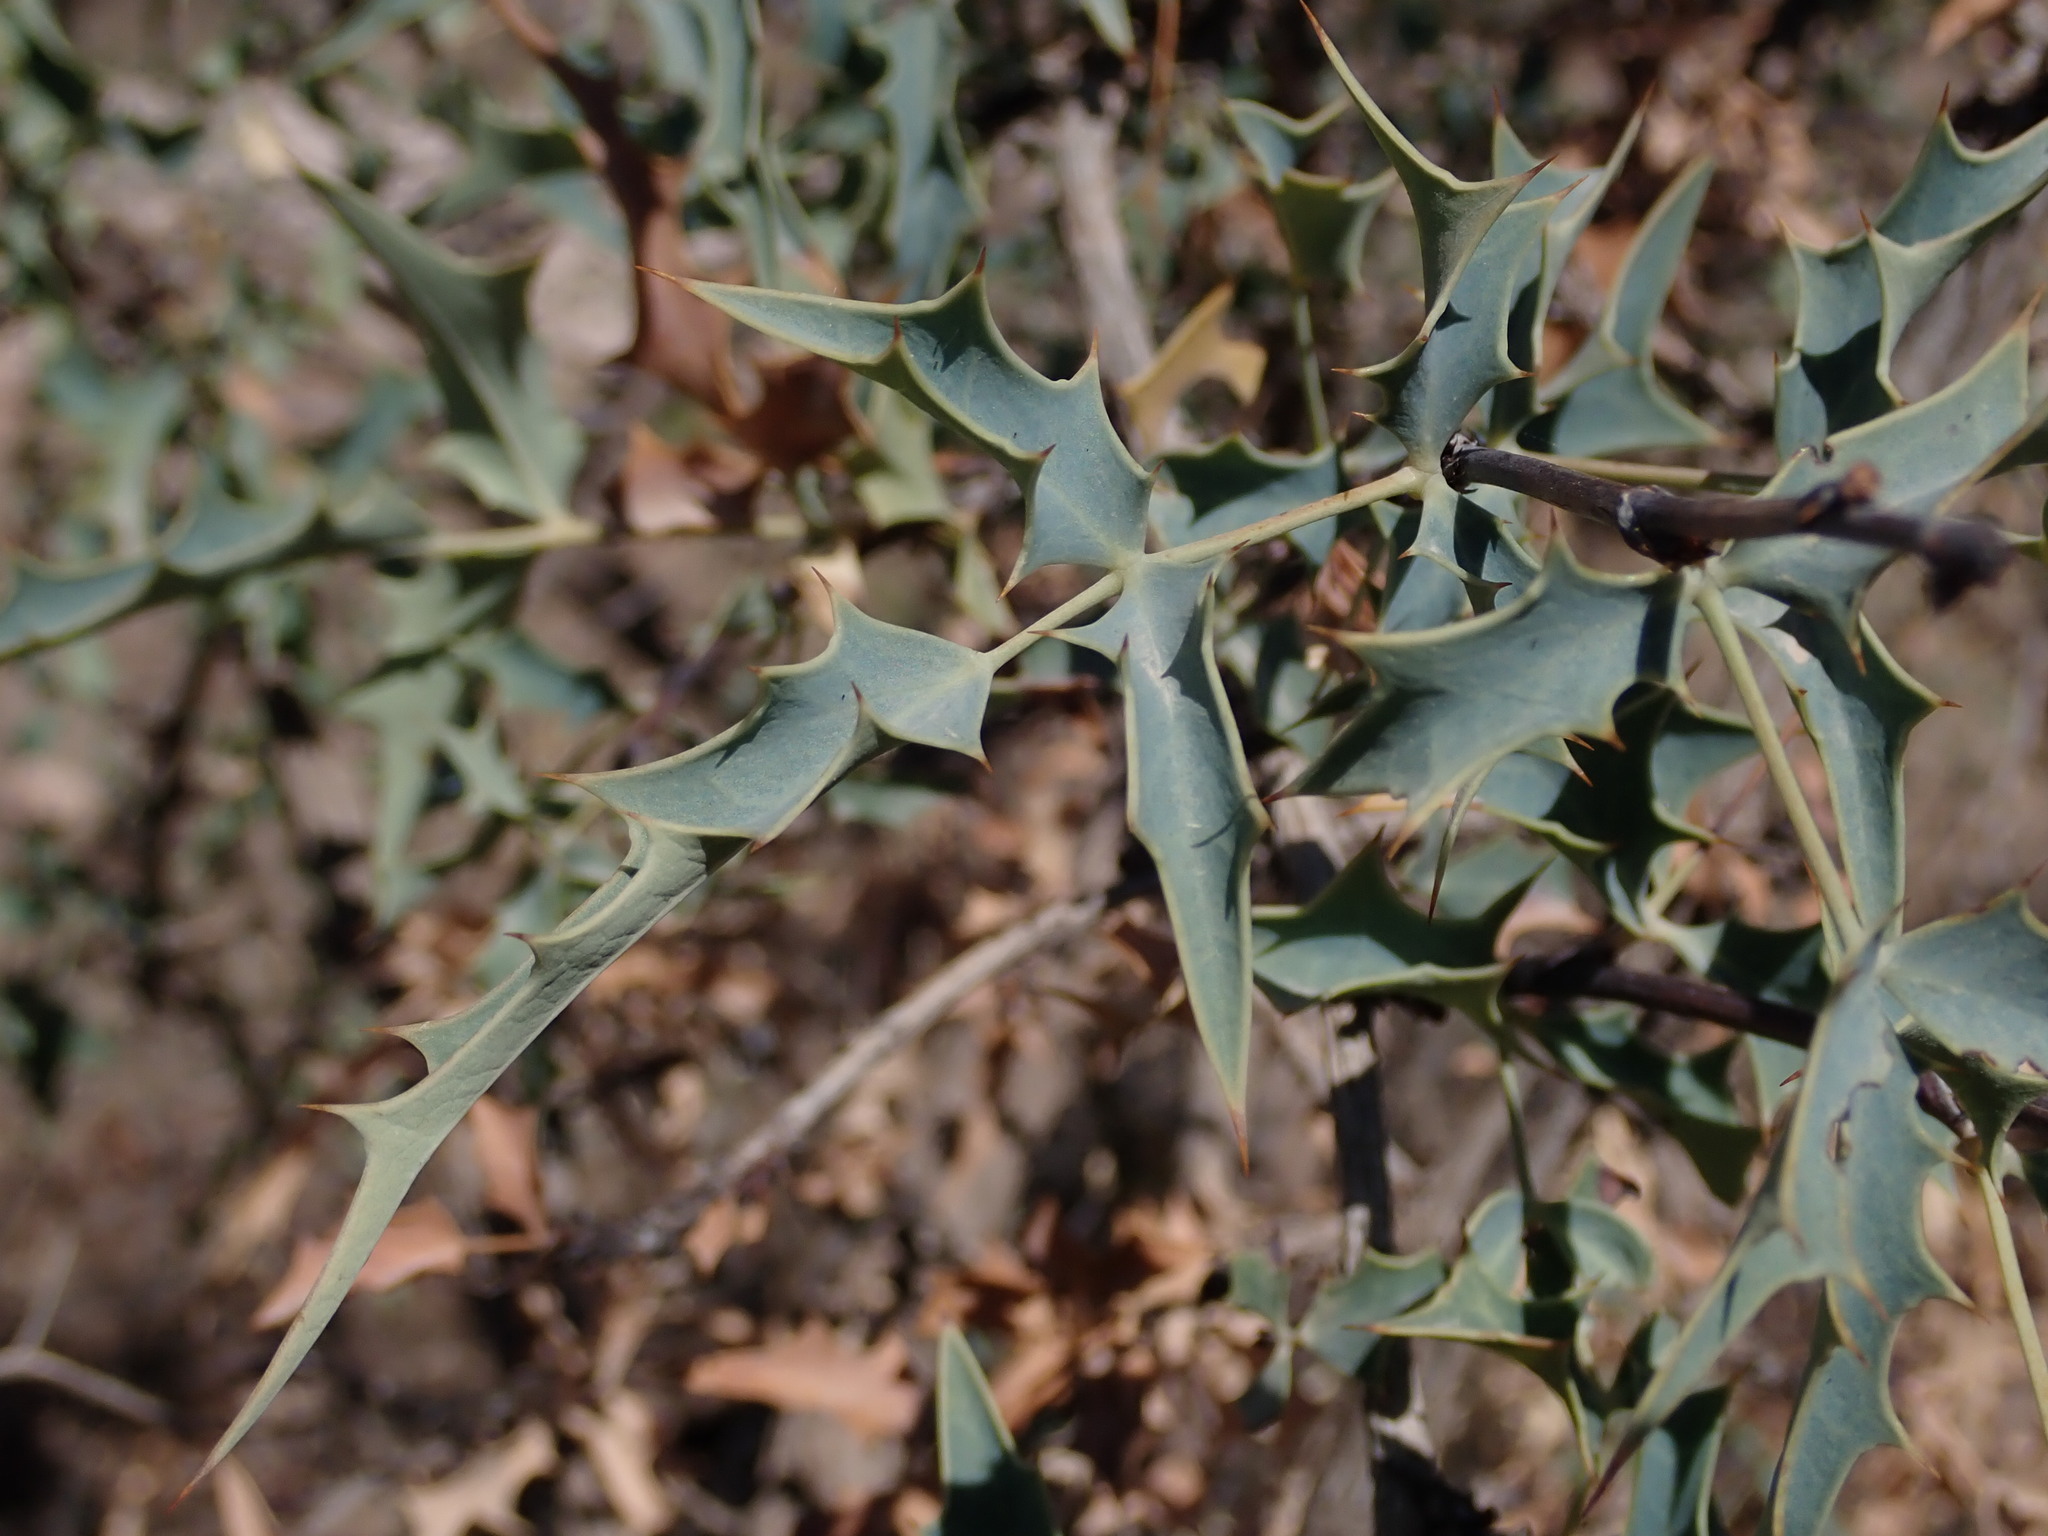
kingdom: Plantae
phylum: Tracheophyta
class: Magnoliopsida
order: Ranunculales
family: Berberidaceae
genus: Alloberberis
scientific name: Alloberberis haematocarpa
